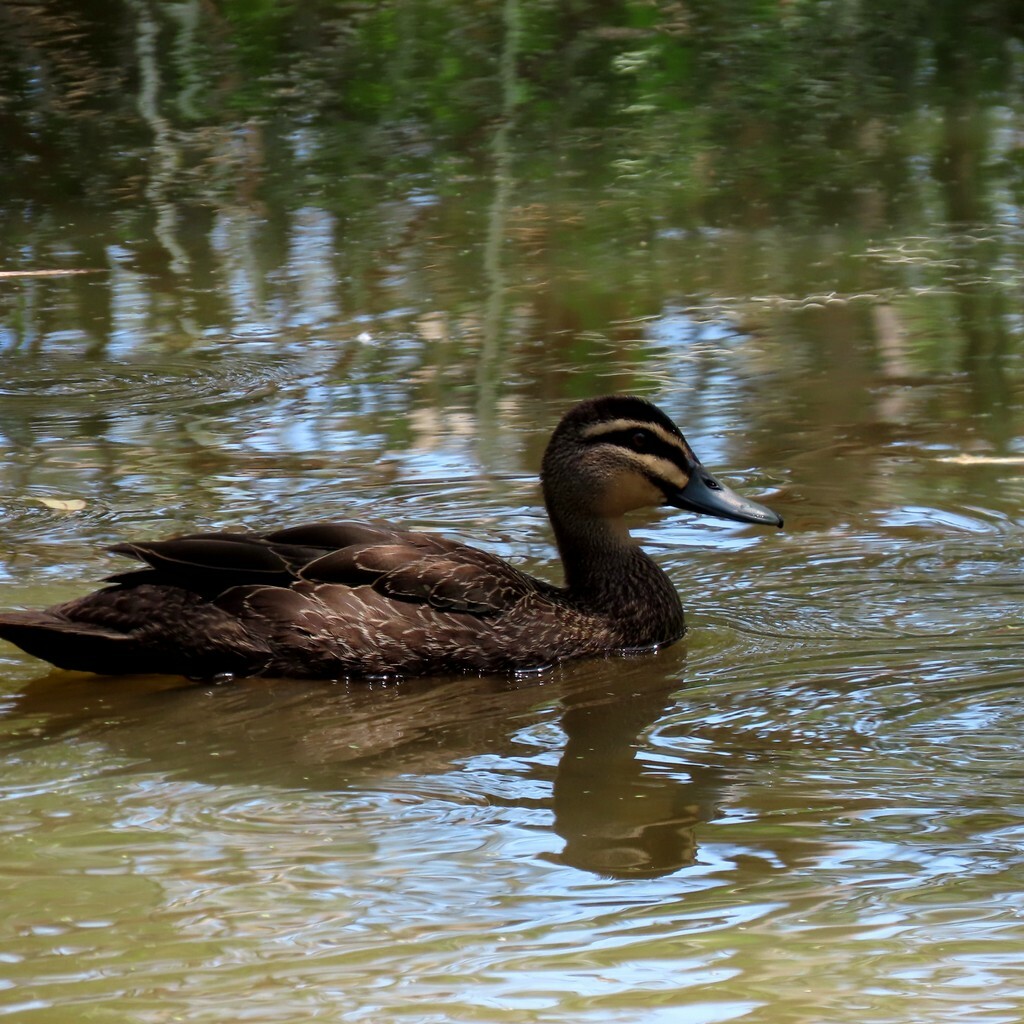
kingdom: Animalia
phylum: Chordata
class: Aves
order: Anseriformes
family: Anatidae
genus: Anas
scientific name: Anas superciliosa
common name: Pacific black duck
